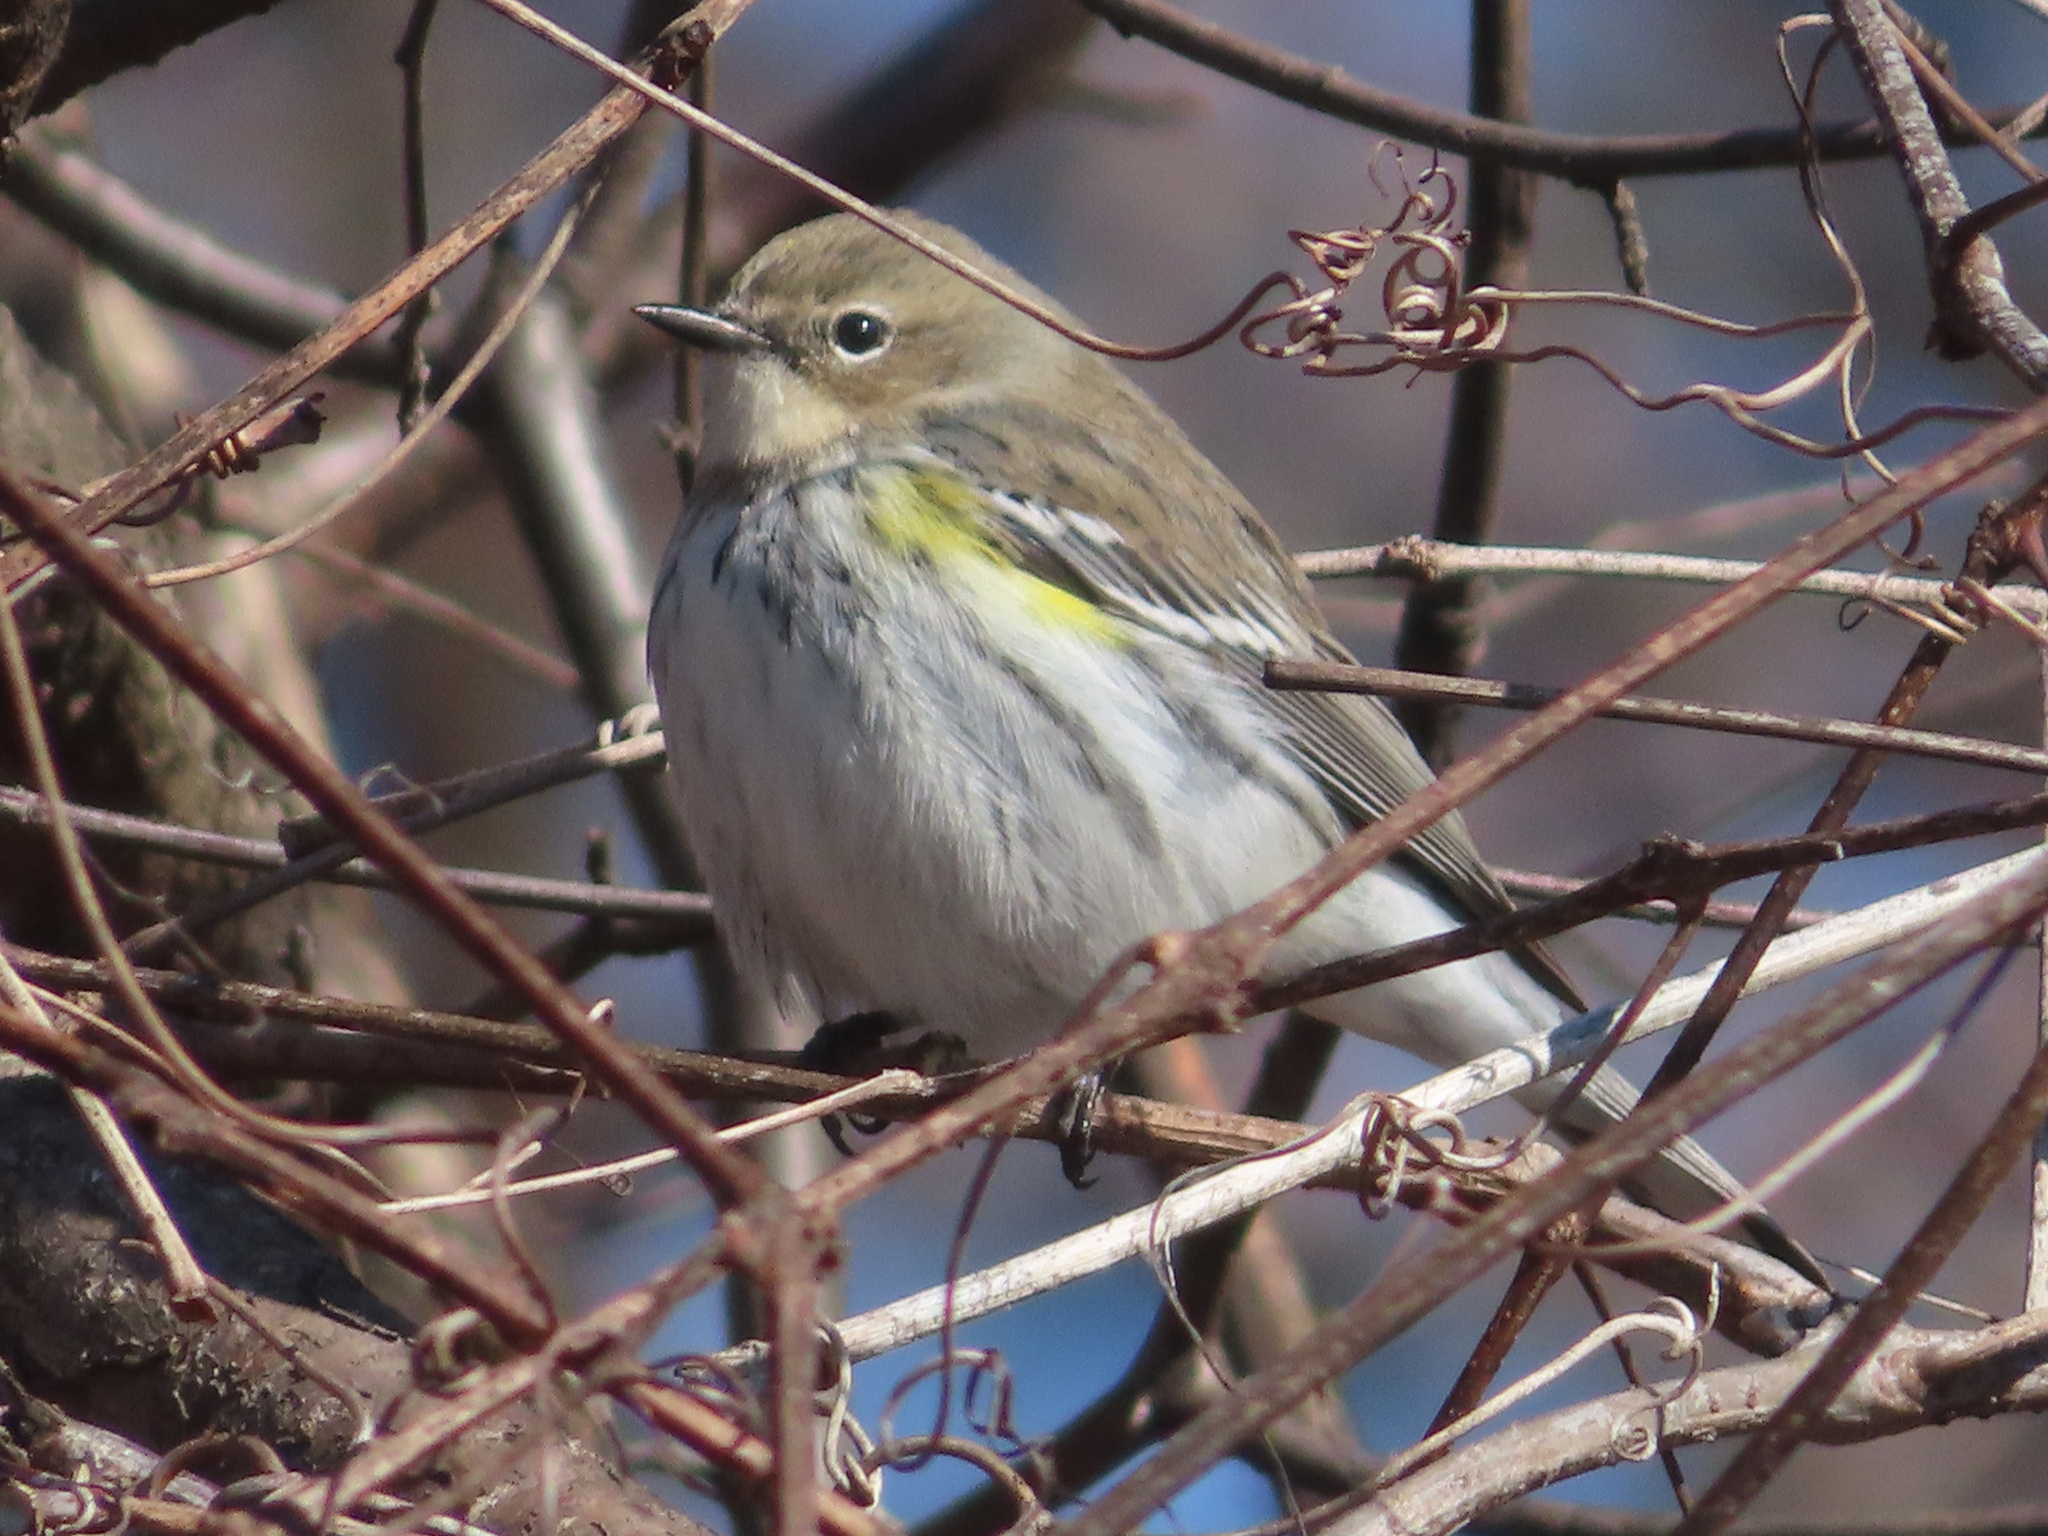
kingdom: Animalia
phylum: Chordata
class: Aves
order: Passeriformes
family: Parulidae
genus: Setophaga
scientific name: Setophaga coronata
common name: Myrtle warbler
